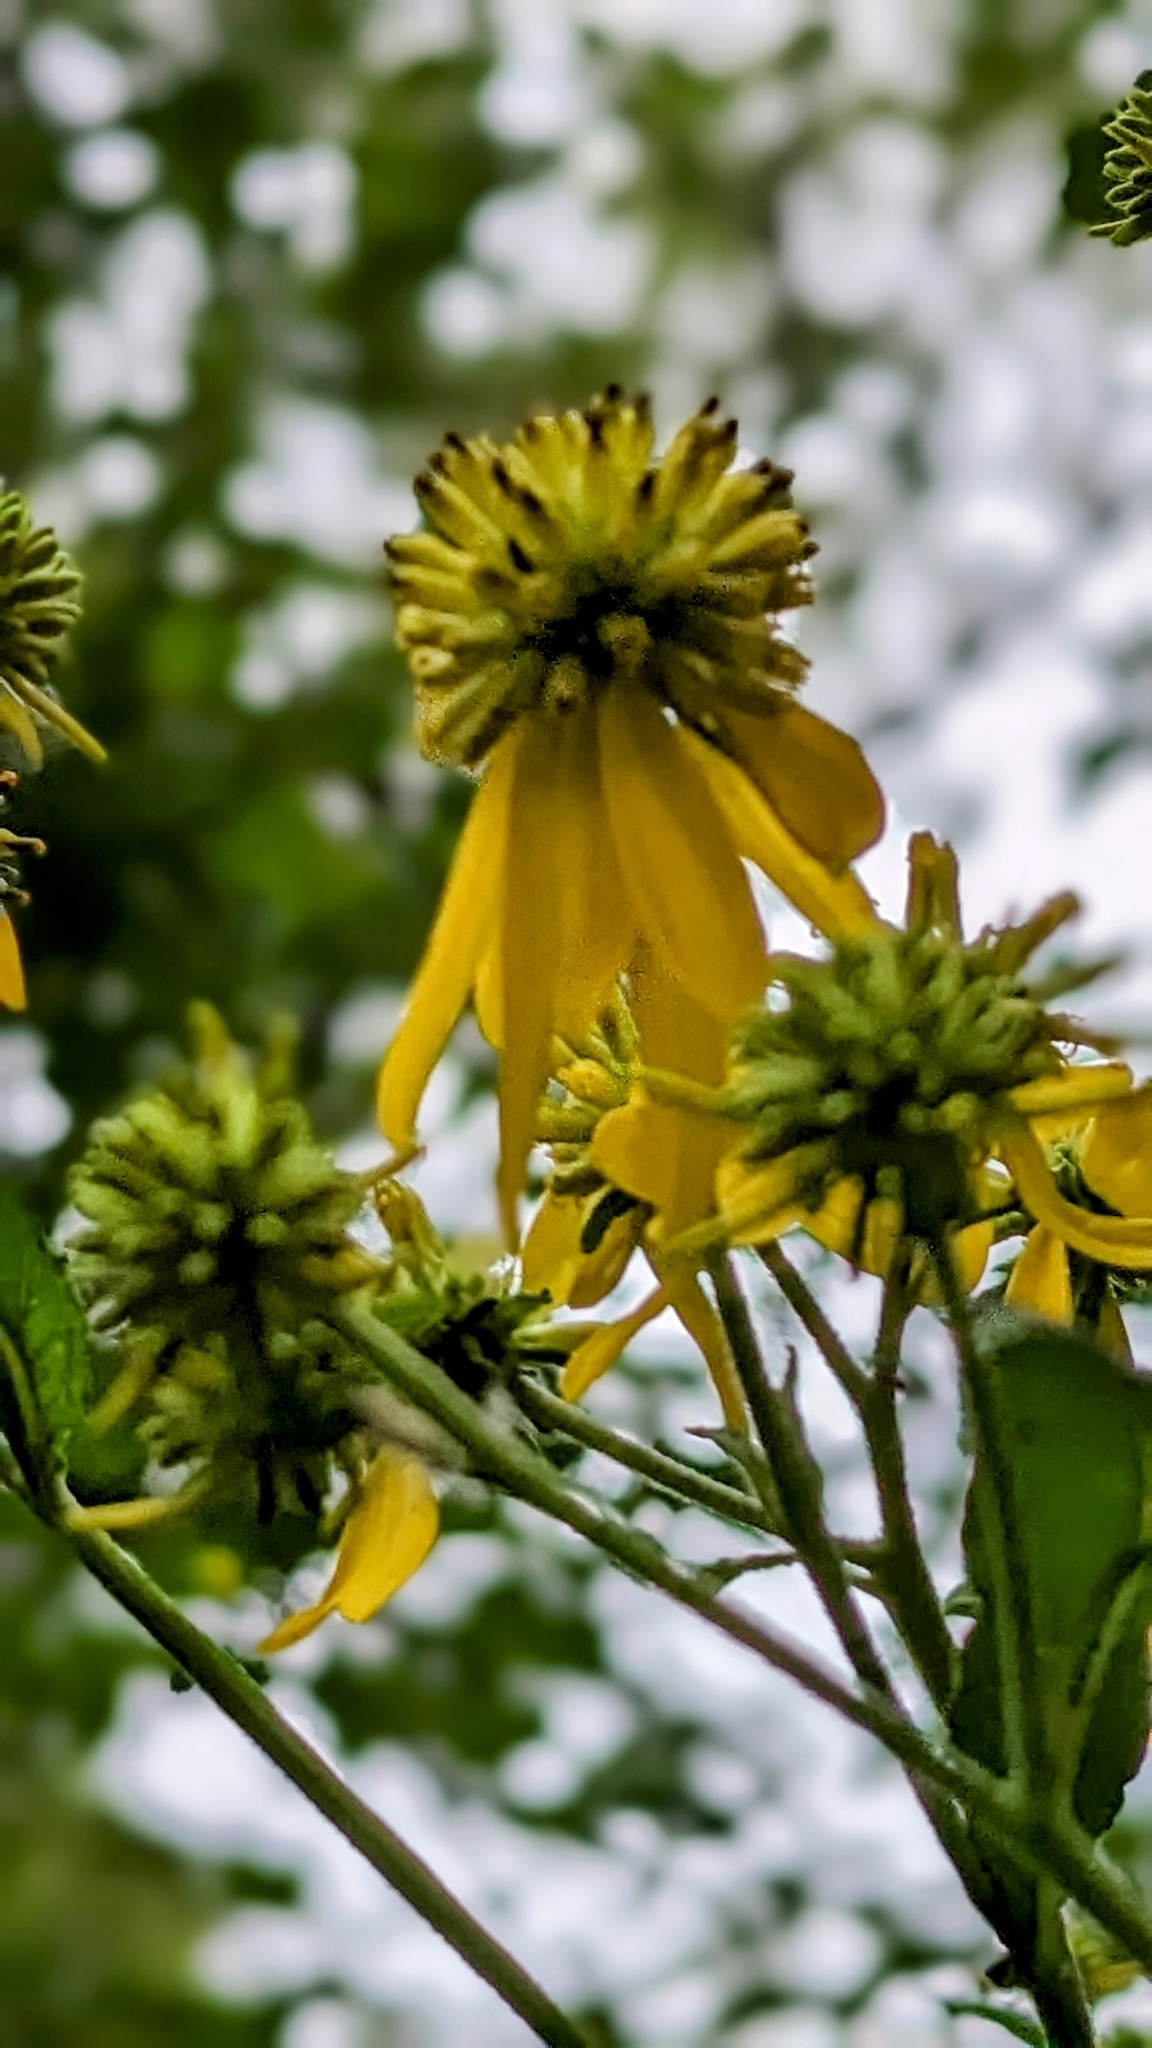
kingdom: Plantae
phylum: Tracheophyta
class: Magnoliopsida
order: Asterales
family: Asteraceae
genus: Verbesina
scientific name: Verbesina alternifolia
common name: Wingstem
